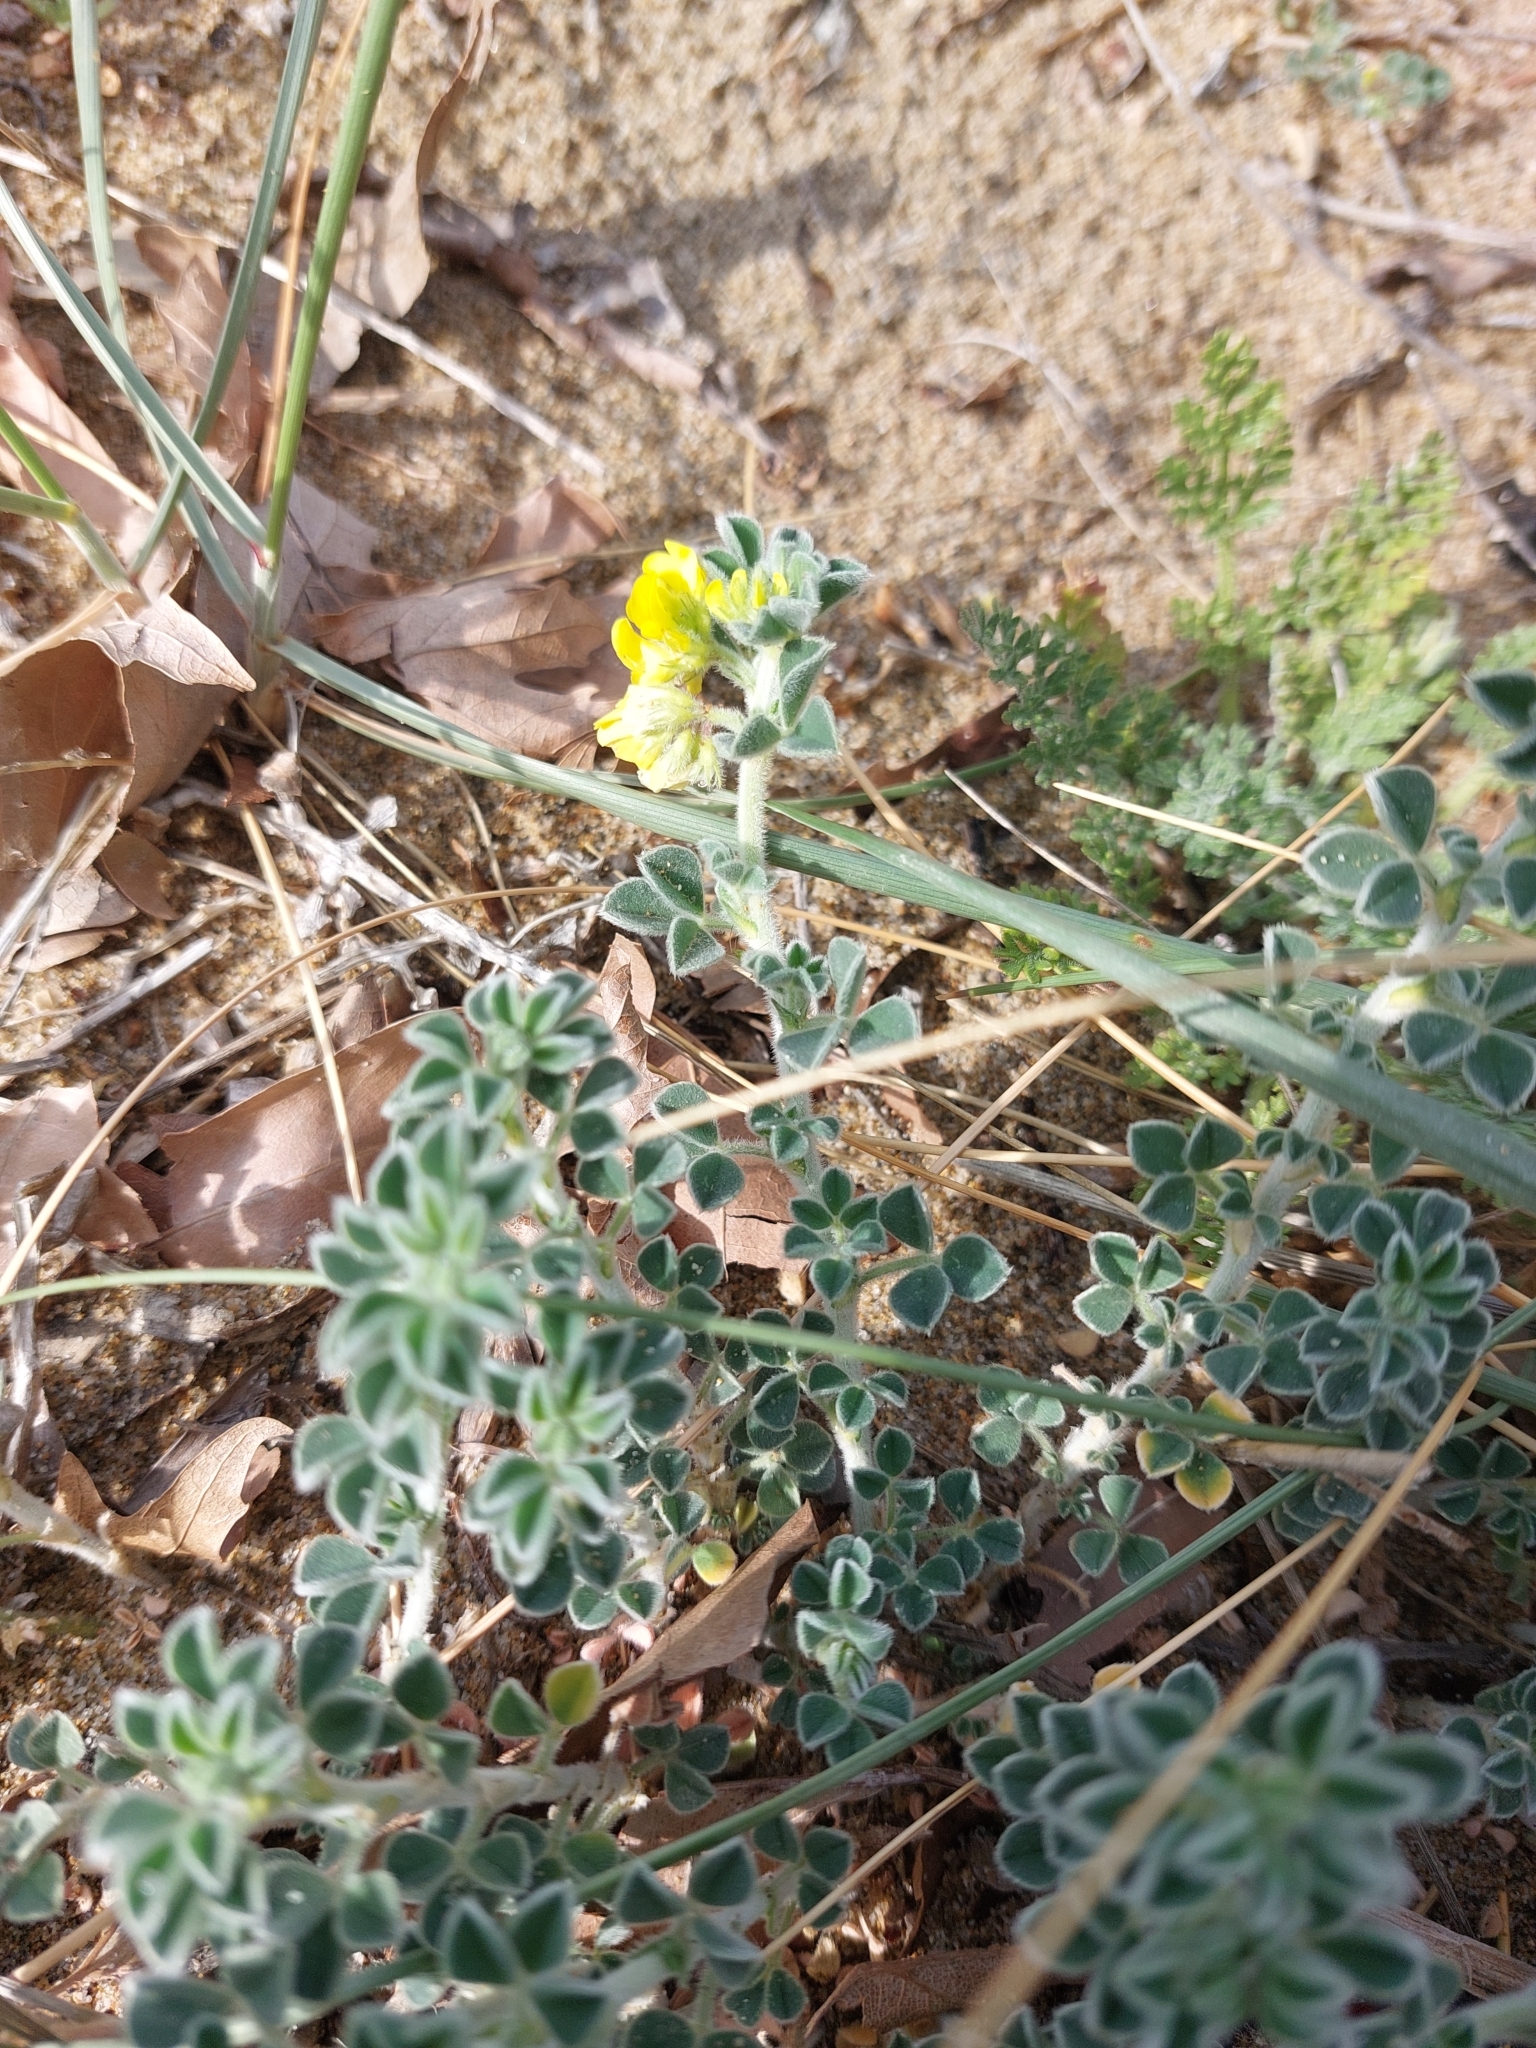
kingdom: Plantae
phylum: Tracheophyta
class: Magnoliopsida
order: Fabales
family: Fabaceae
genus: Medicago
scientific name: Medicago marina
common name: Sea medick
